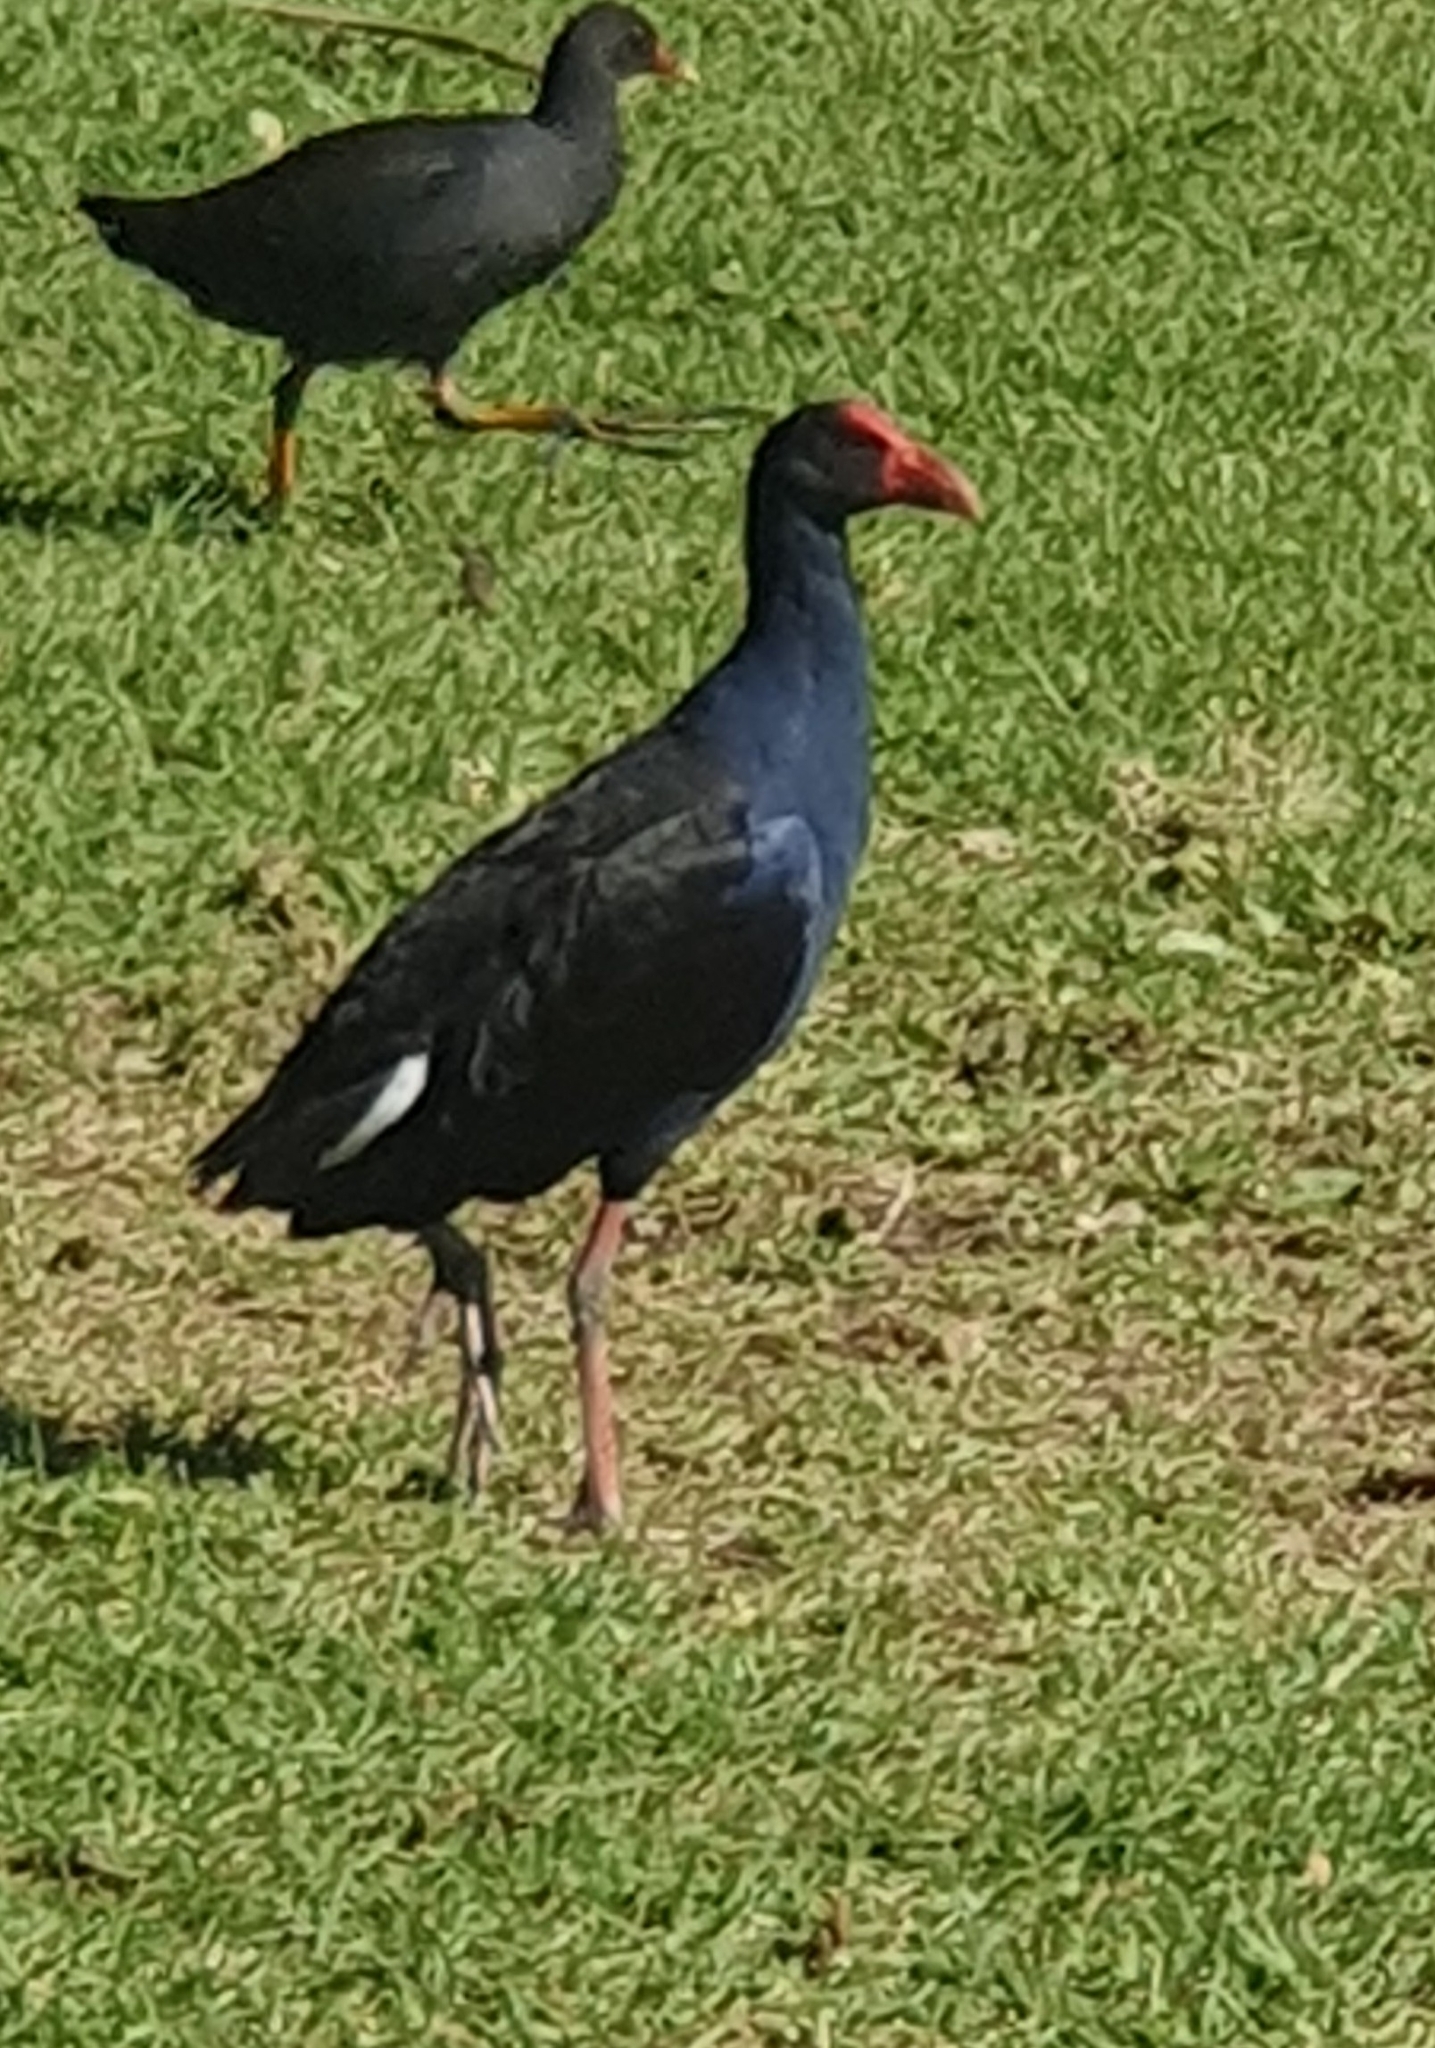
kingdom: Animalia
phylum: Chordata
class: Aves
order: Gruiformes
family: Rallidae
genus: Porphyrio
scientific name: Porphyrio melanotus
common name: Australasian swamphen
